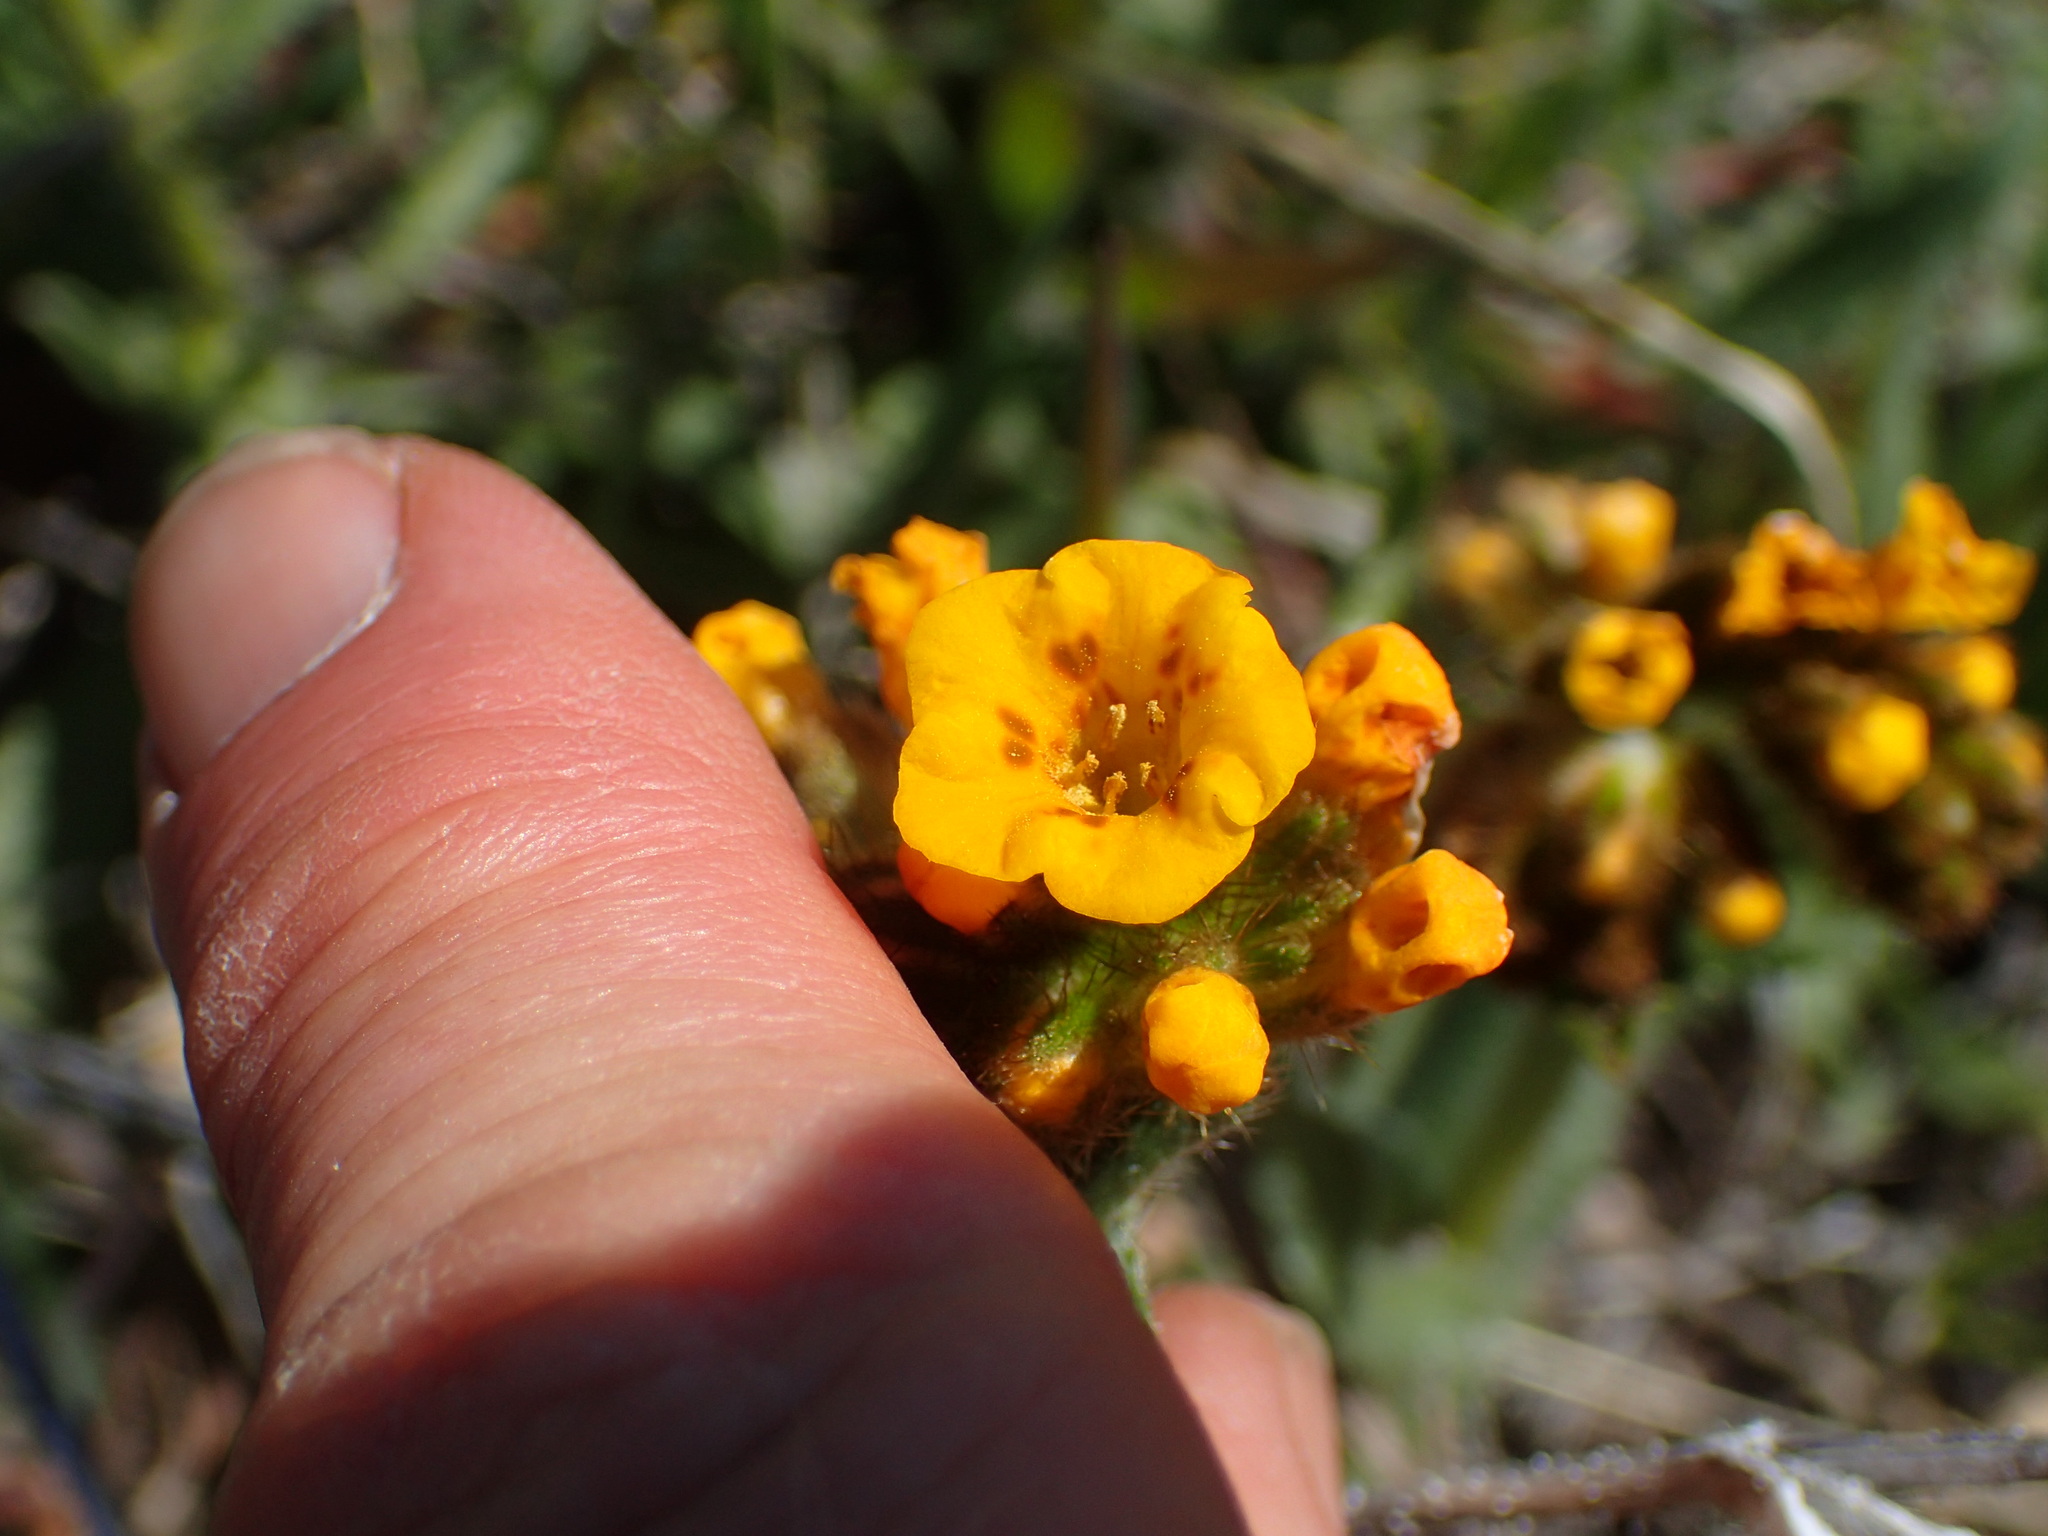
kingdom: Plantae
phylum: Tracheophyta
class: Magnoliopsida
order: Boraginales
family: Boraginaceae
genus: Amsinckia
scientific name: Amsinckia douglasiana
